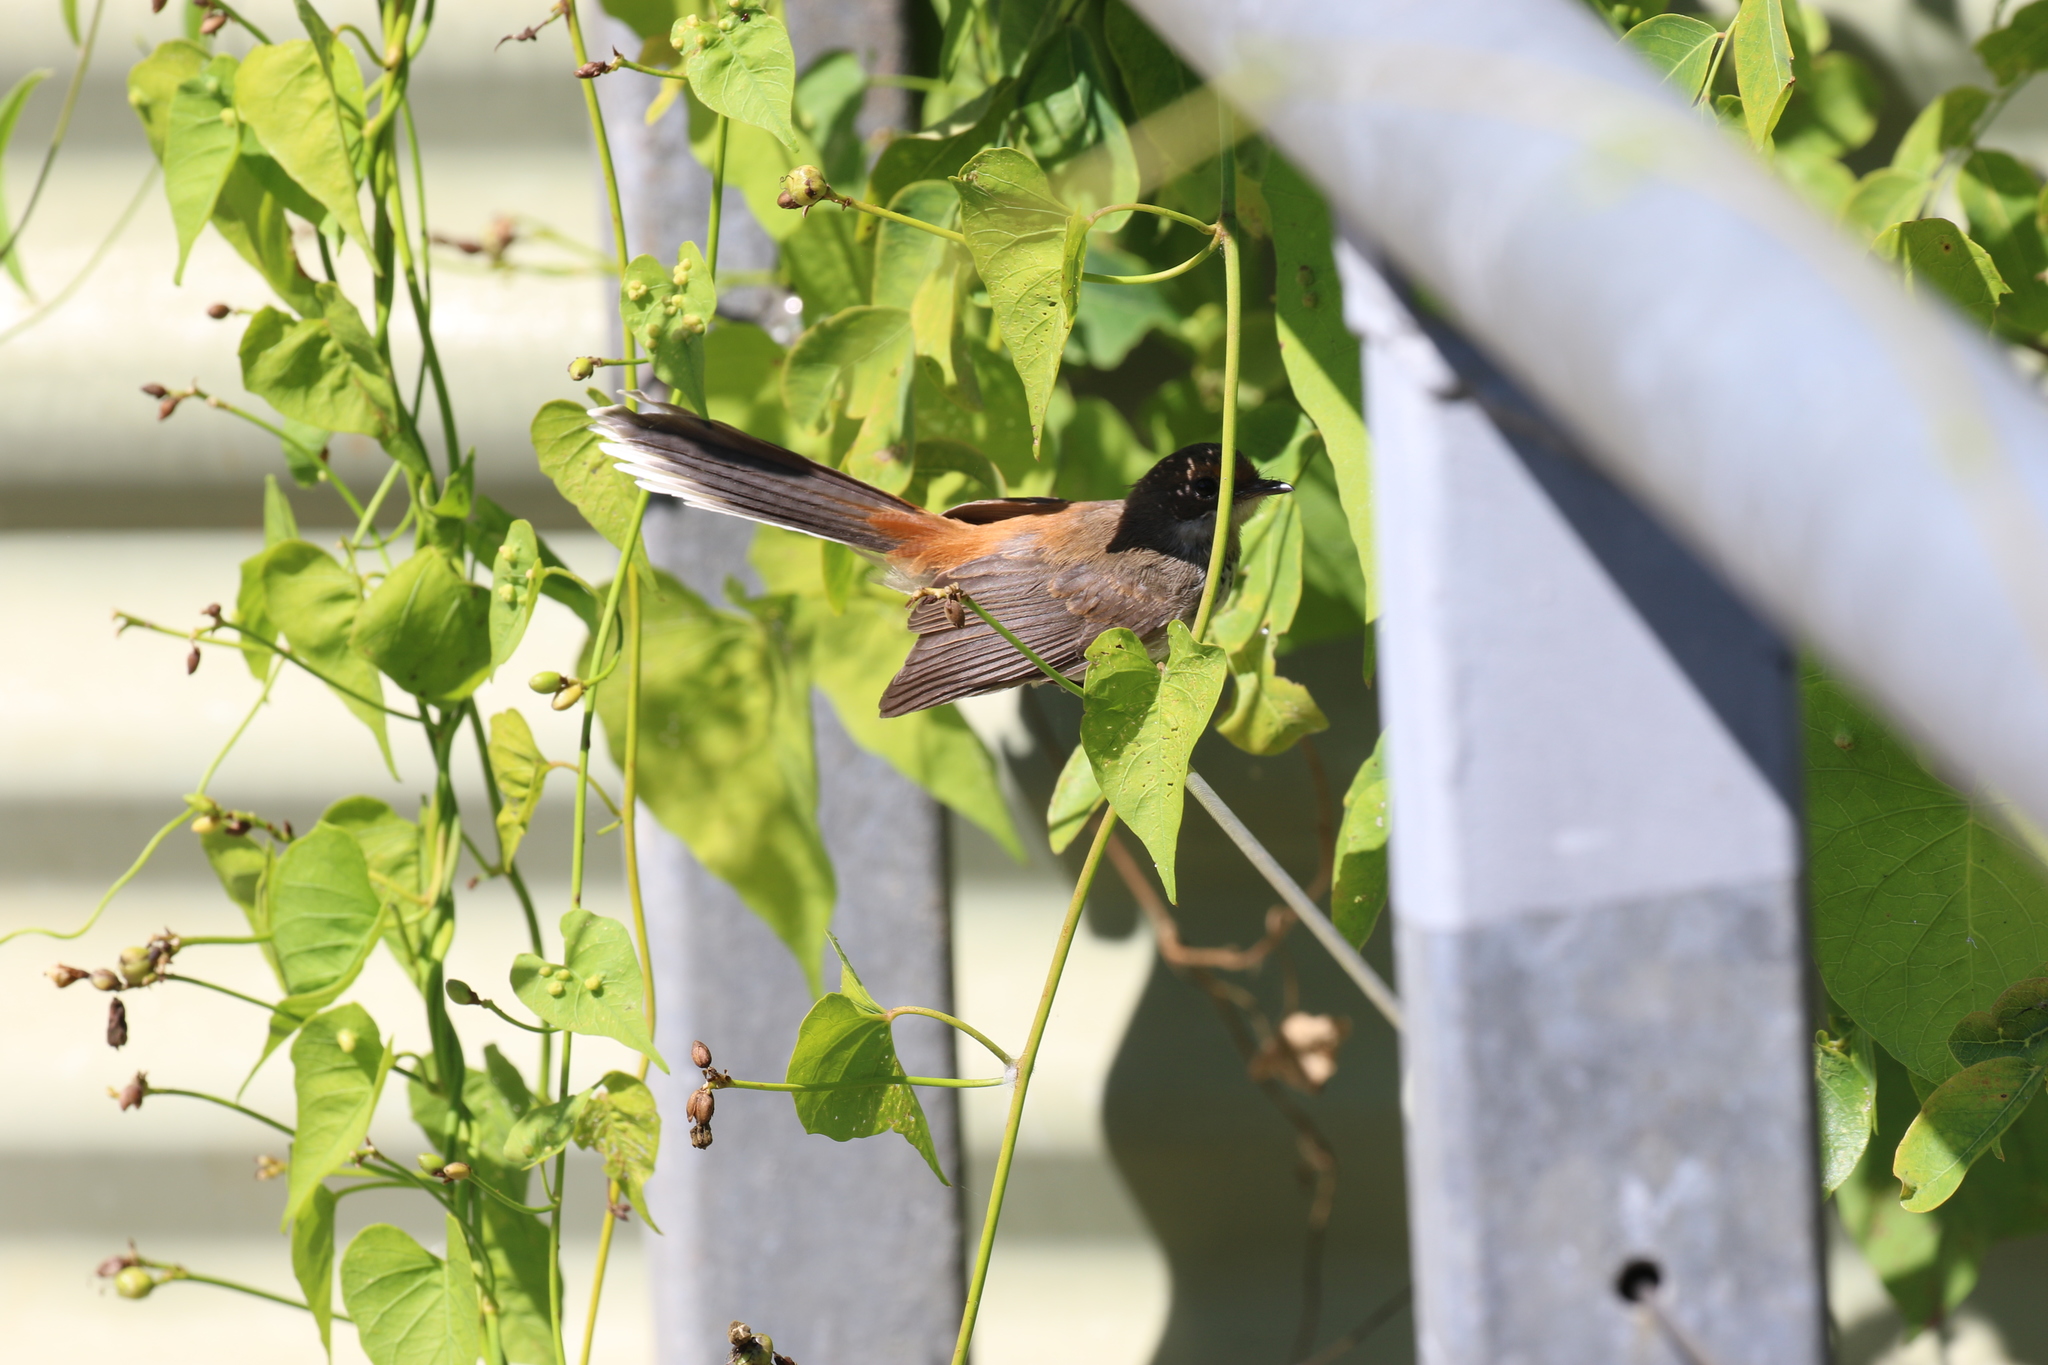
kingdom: Animalia
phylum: Chordata
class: Aves
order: Passeriformes
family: Rhipiduridae
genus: Rhipidura
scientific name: Rhipidura dryas
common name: Arafura fantail
